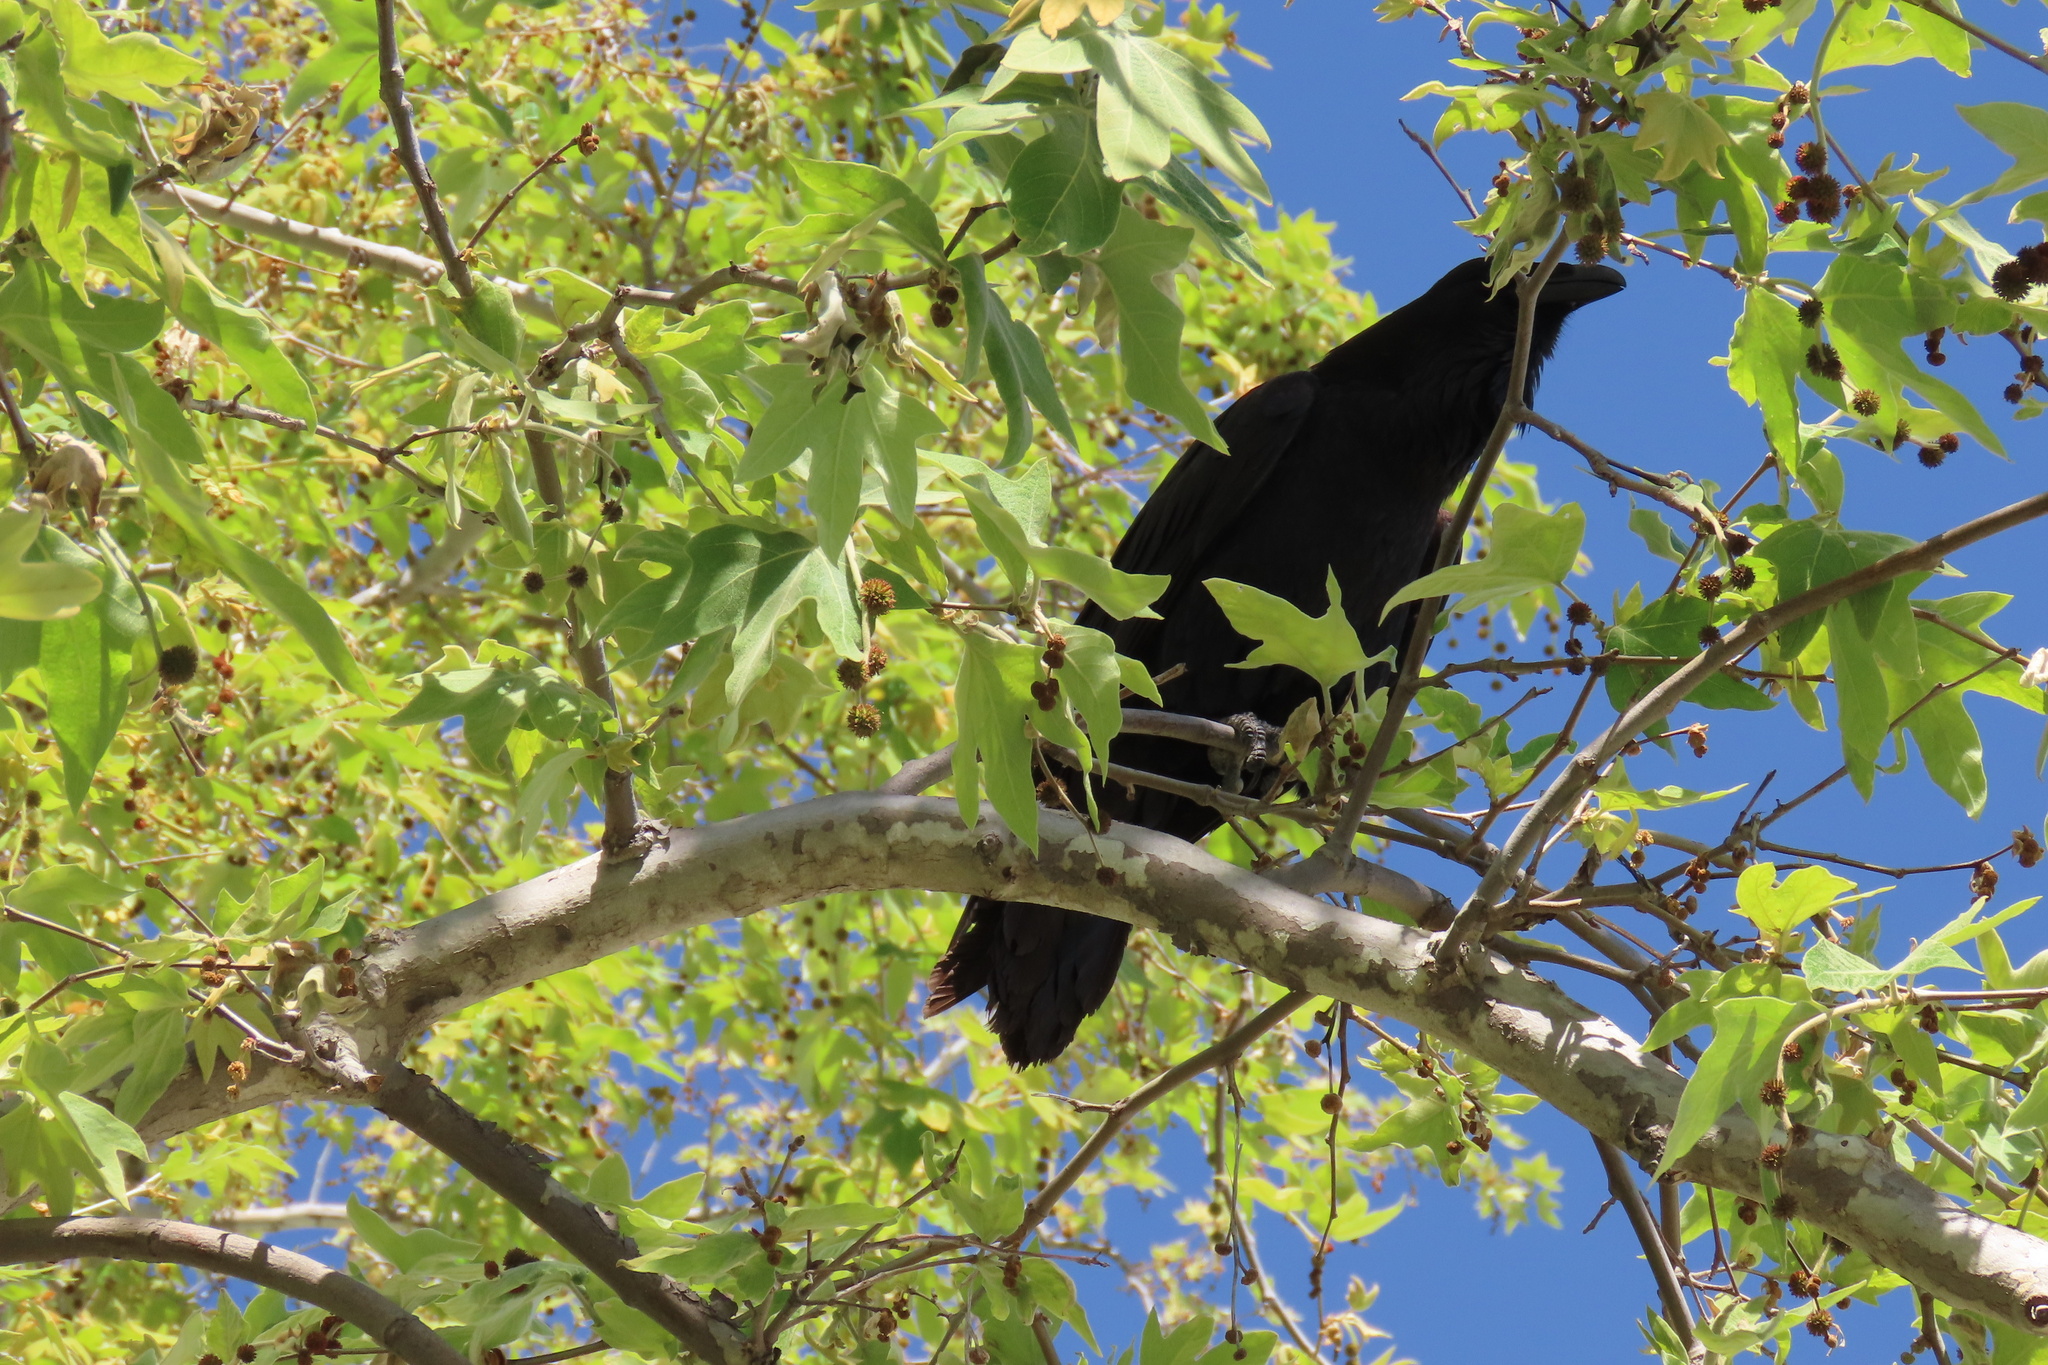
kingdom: Animalia
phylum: Chordata
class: Aves
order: Passeriformes
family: Corvidae
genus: Corvus
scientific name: Corvus corax
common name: Common raven
